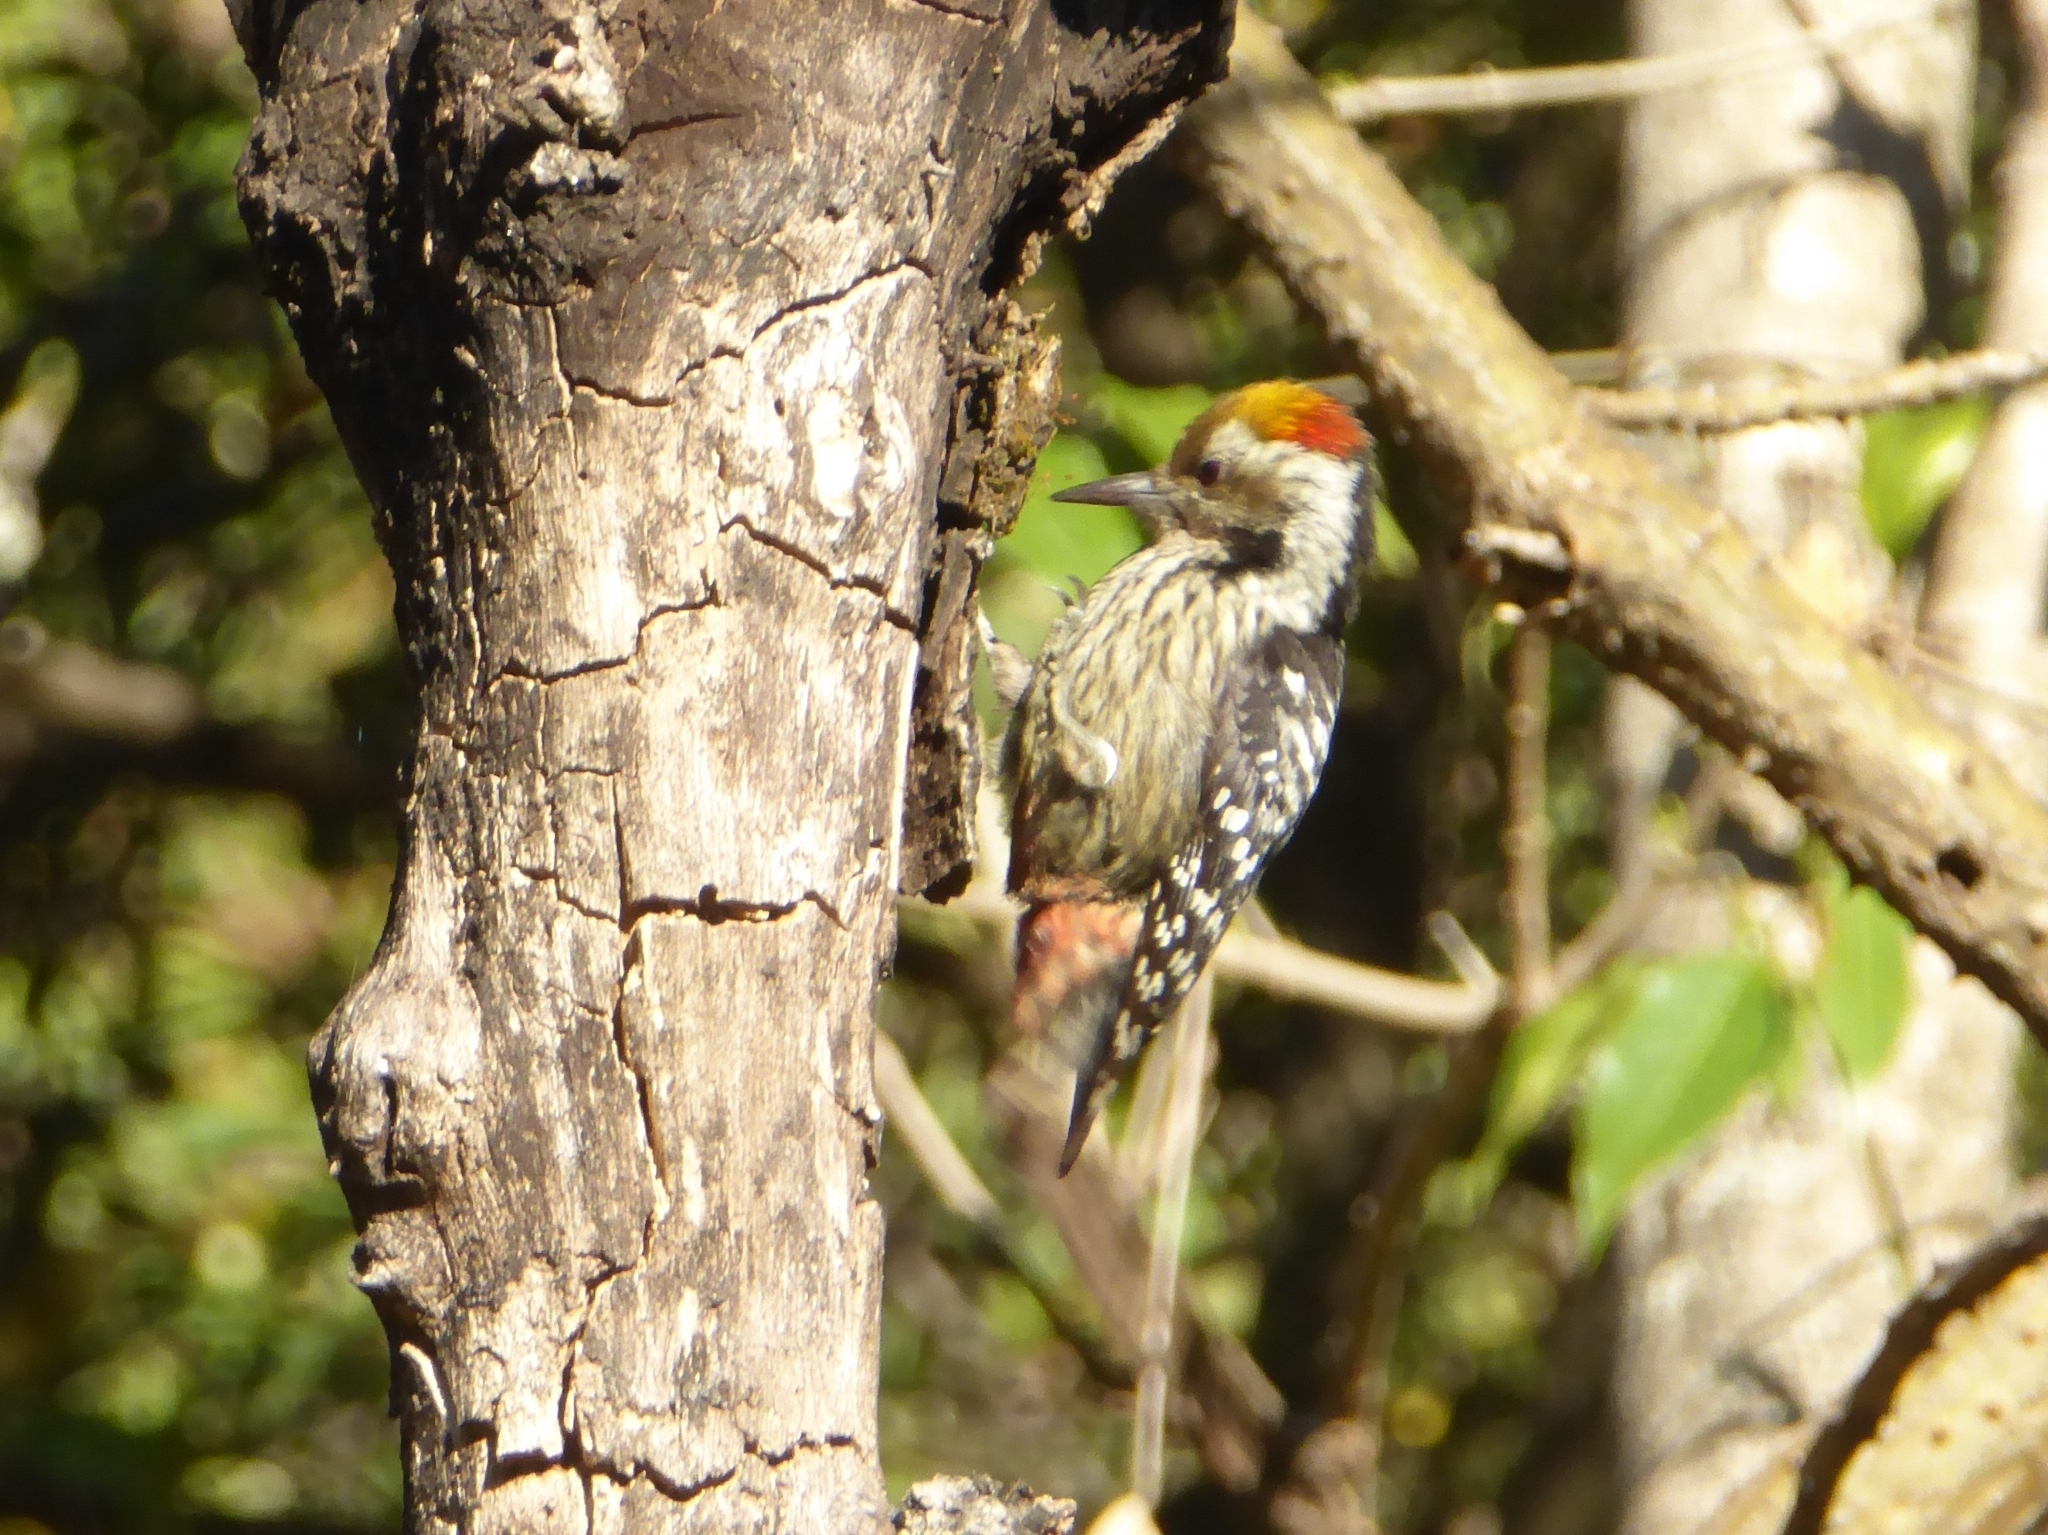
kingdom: Animalia
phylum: Chordata
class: Aves
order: Piciformes
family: Picidae
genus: Dendrocoptes
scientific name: Dendrocoptes auriceps
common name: Brown-fronted woodpecker
